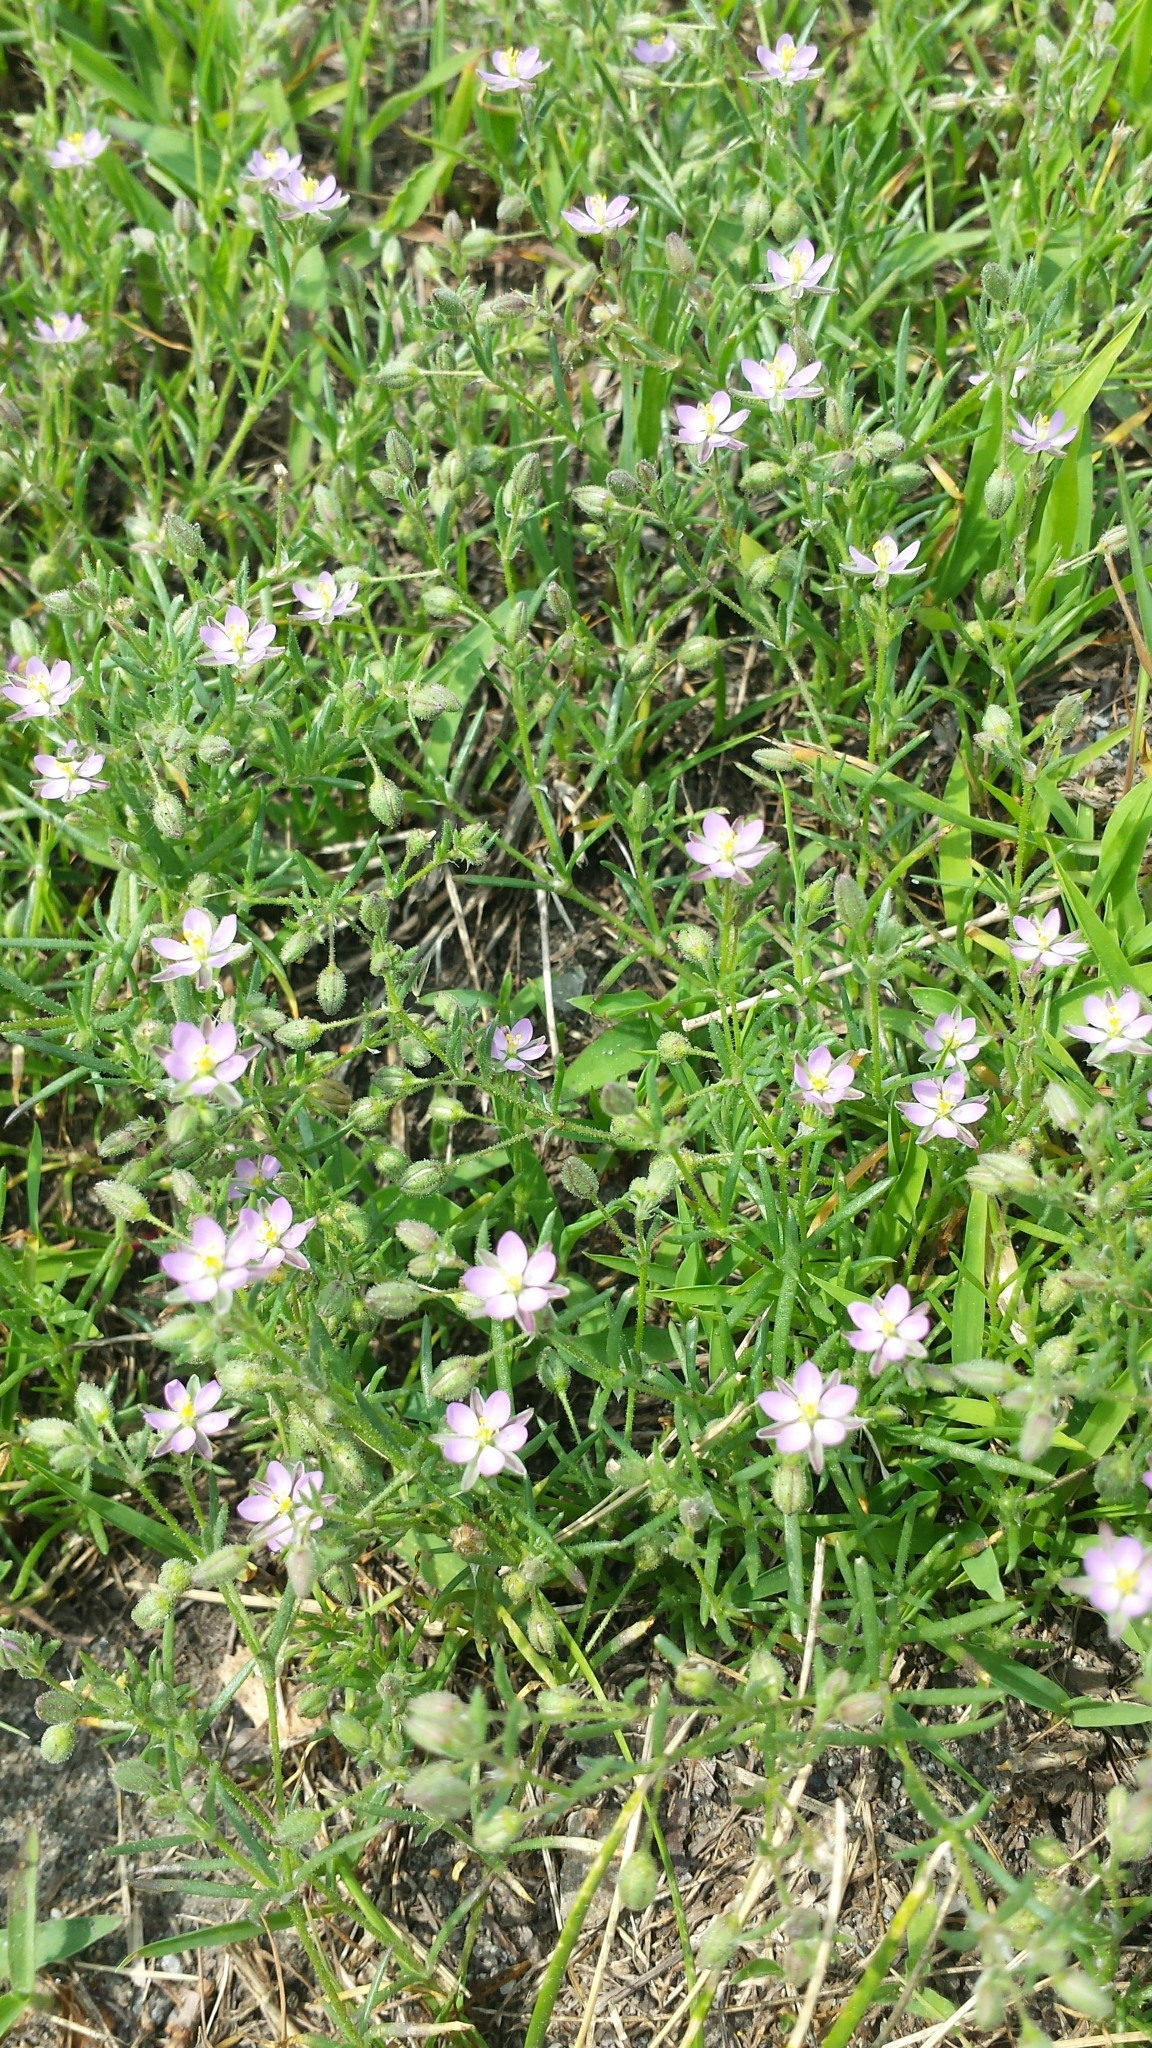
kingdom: Plantae
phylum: Tracheophyta
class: Magnoliopsida
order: Caryophyllales
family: Caryophyllaceae
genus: Spergularia
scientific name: Spergularia rubra
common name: Red sand-spurrey
